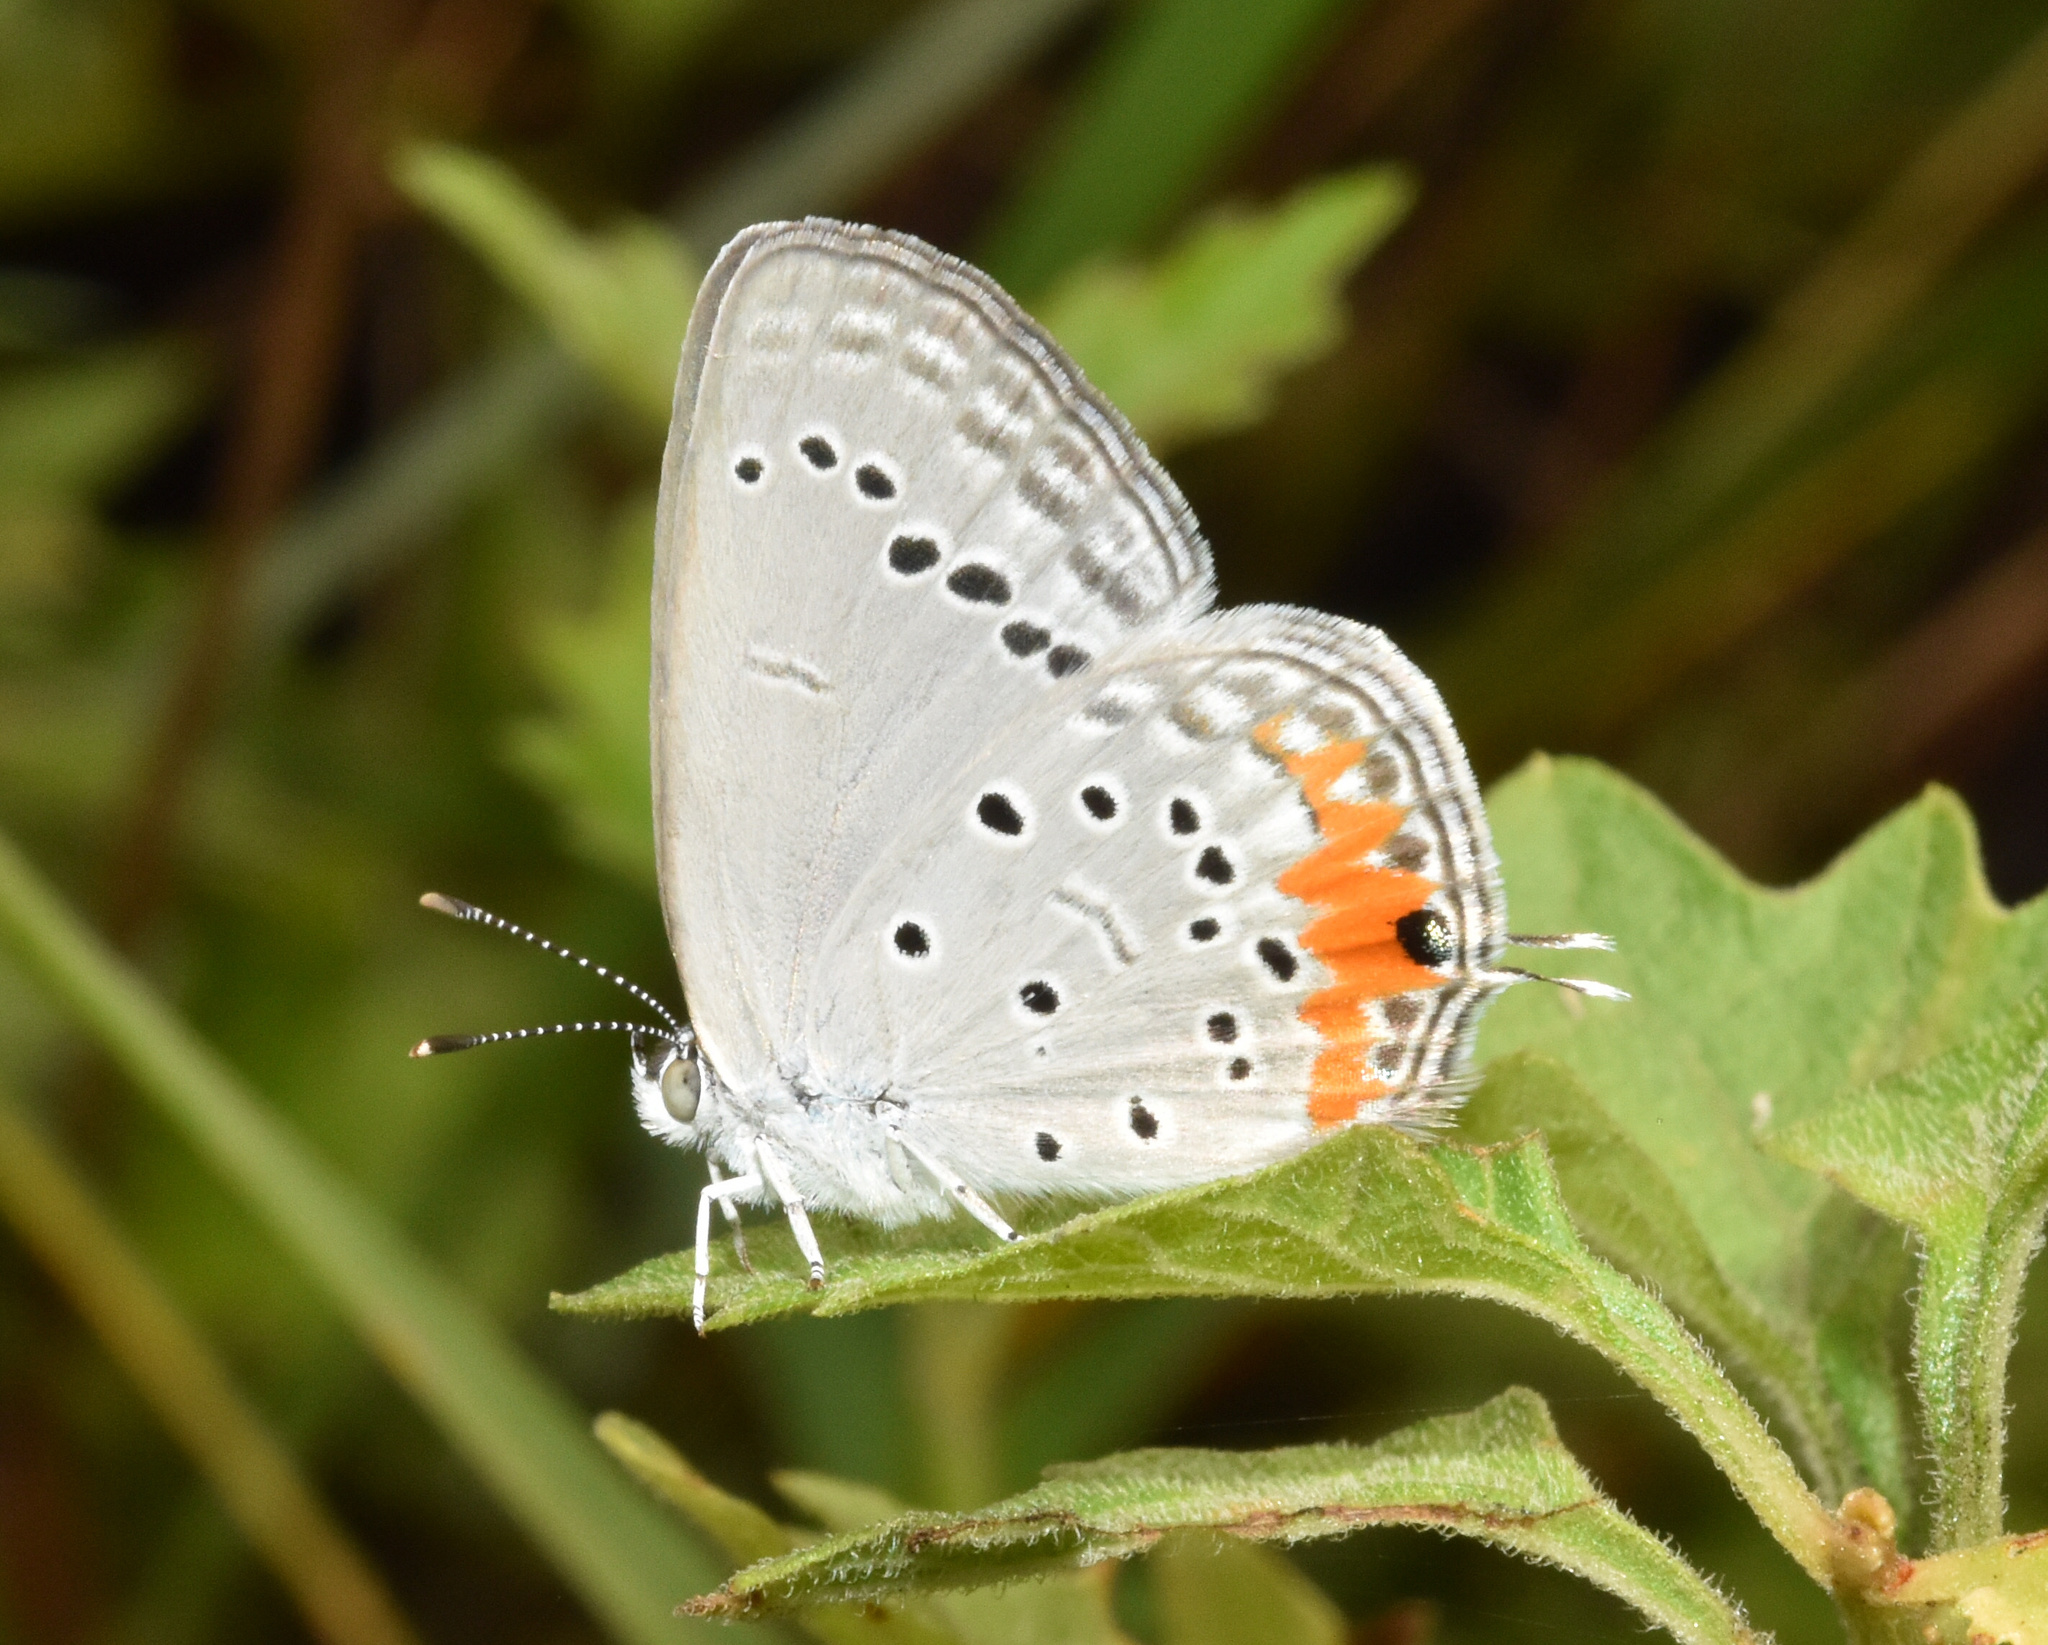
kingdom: Animalia
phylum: Arthropoda
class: Insecta
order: Lepidoptera
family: Lycaenidae
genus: Cupidopsis
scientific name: Cupidopsis jobates
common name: Tailed meadow blue
